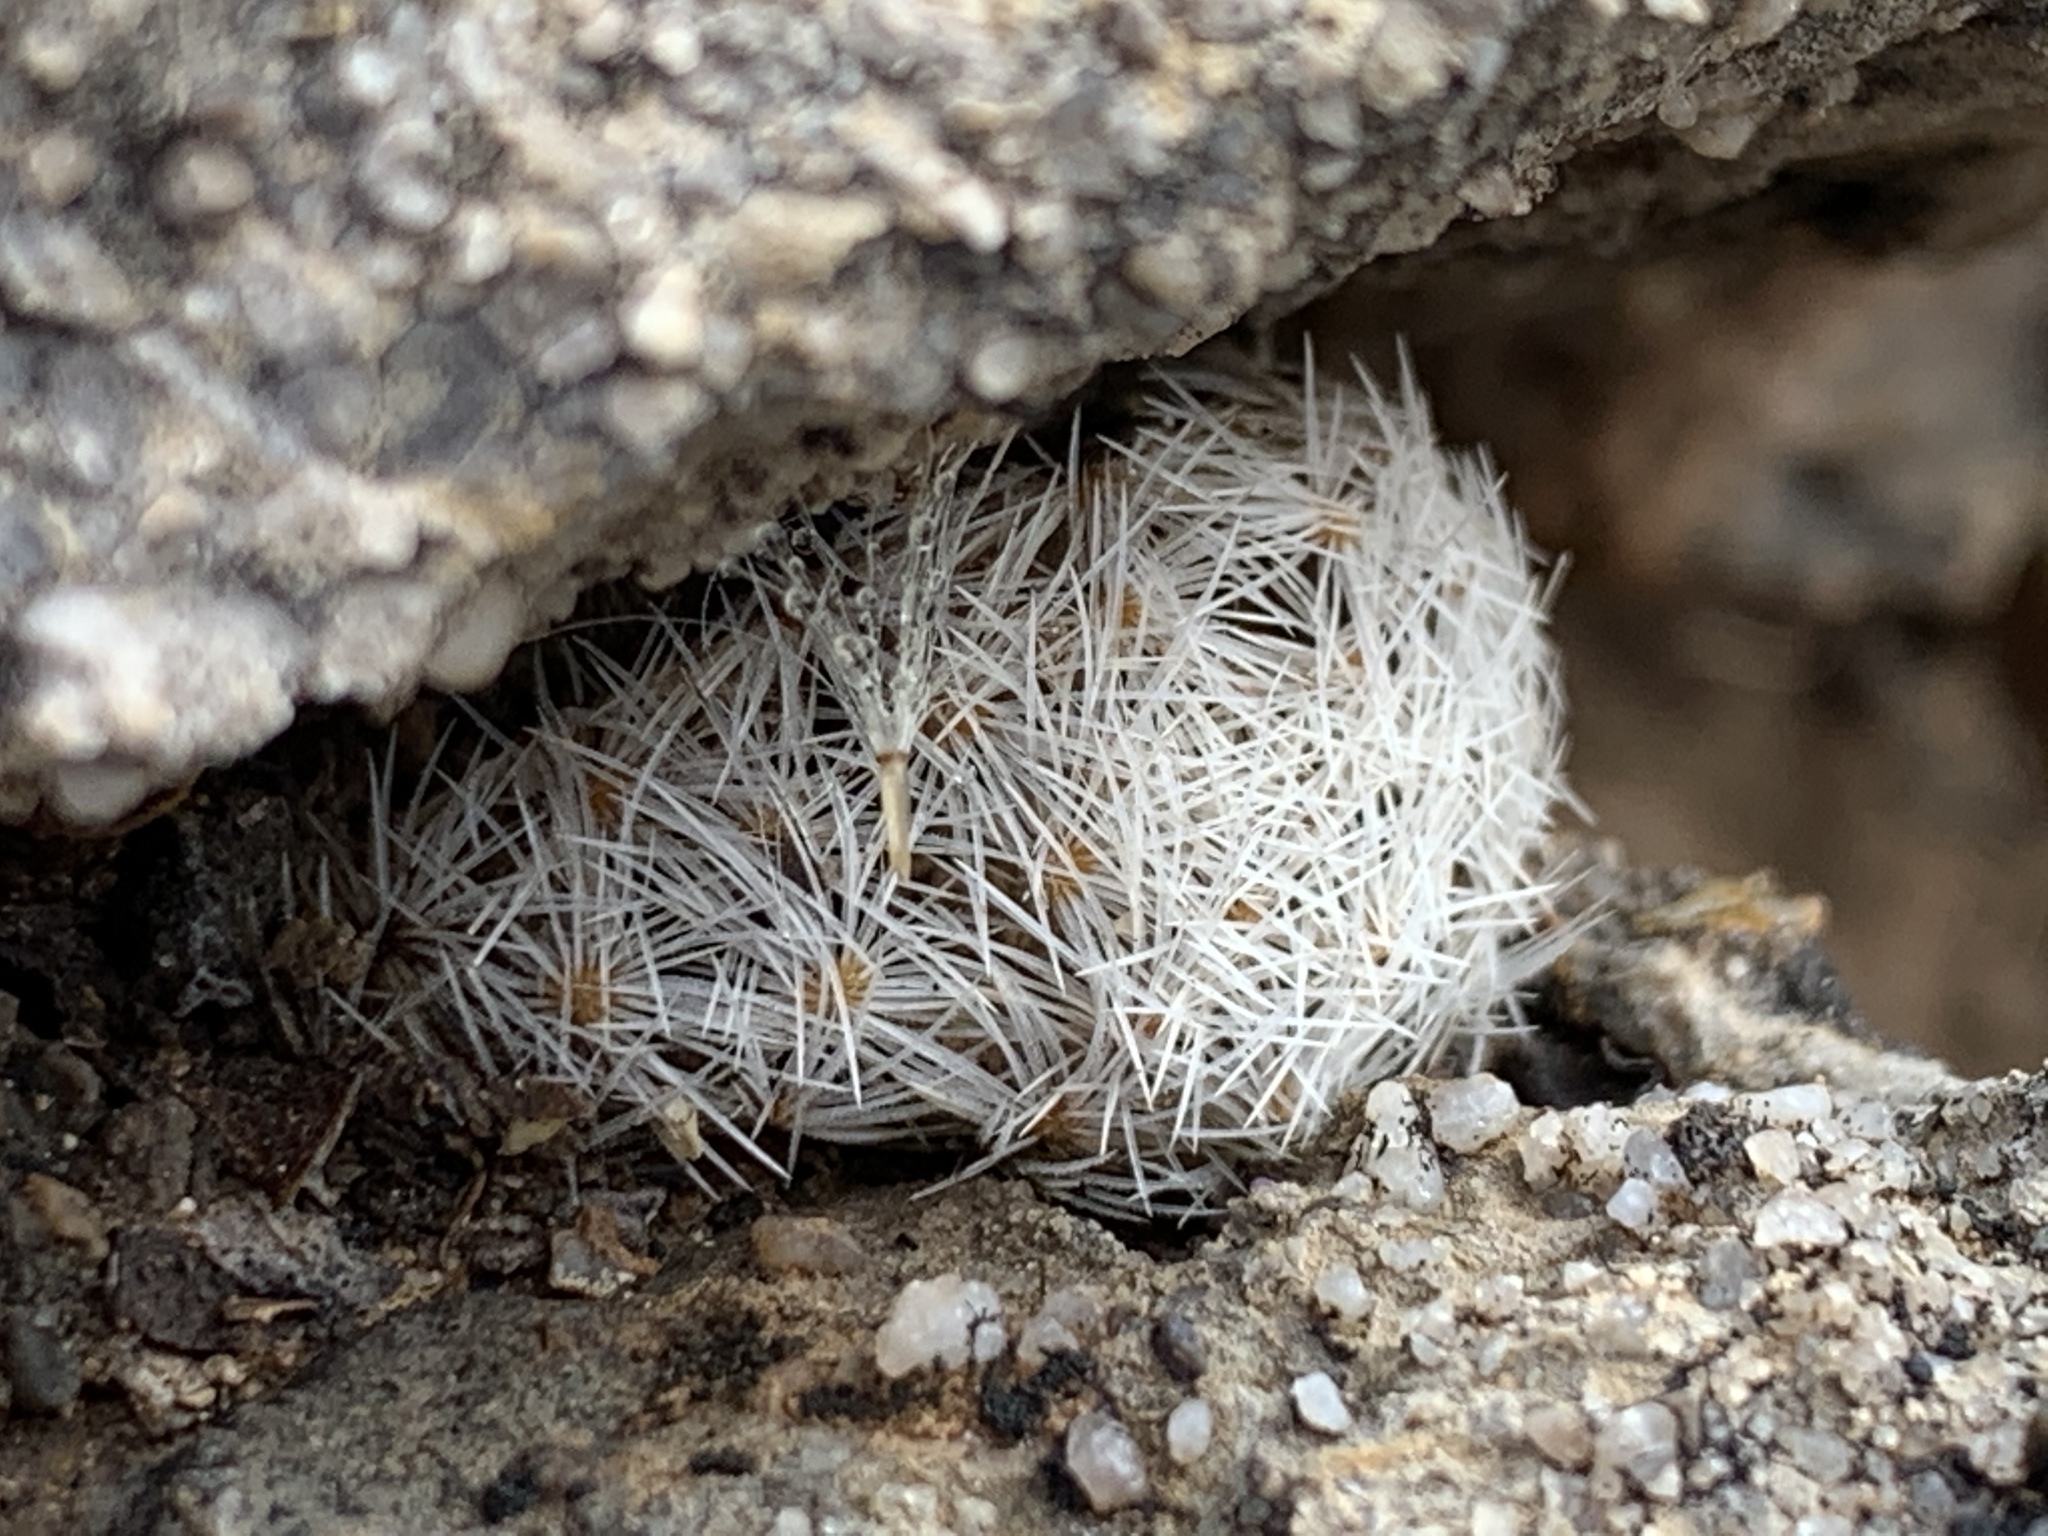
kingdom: Plantae
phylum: Tracheophyta
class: Magnoliopsida
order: Caryophyllales
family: Cactaceae
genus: Mammillaria
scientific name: Mammillaria lasiacantha
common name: Lace-spine nipple cactus
